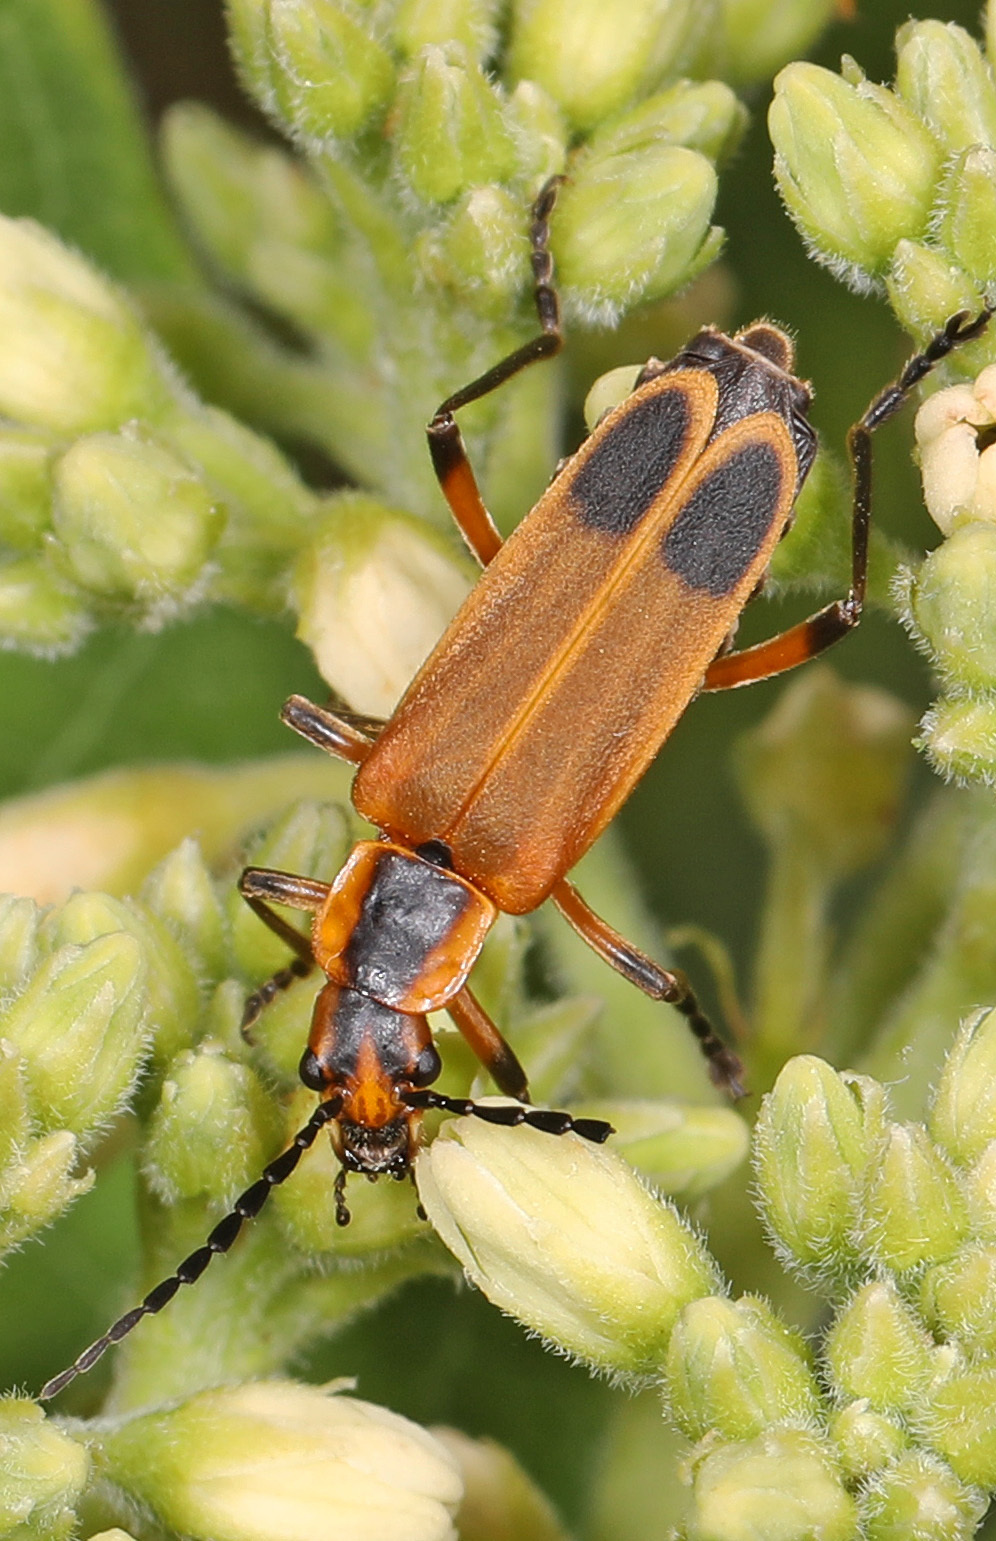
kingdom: Animalia
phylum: Arthropoda
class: Insecta
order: Coleoptera
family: Cantharidae
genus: Chauliognathus
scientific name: Chauliognathus marginatus
